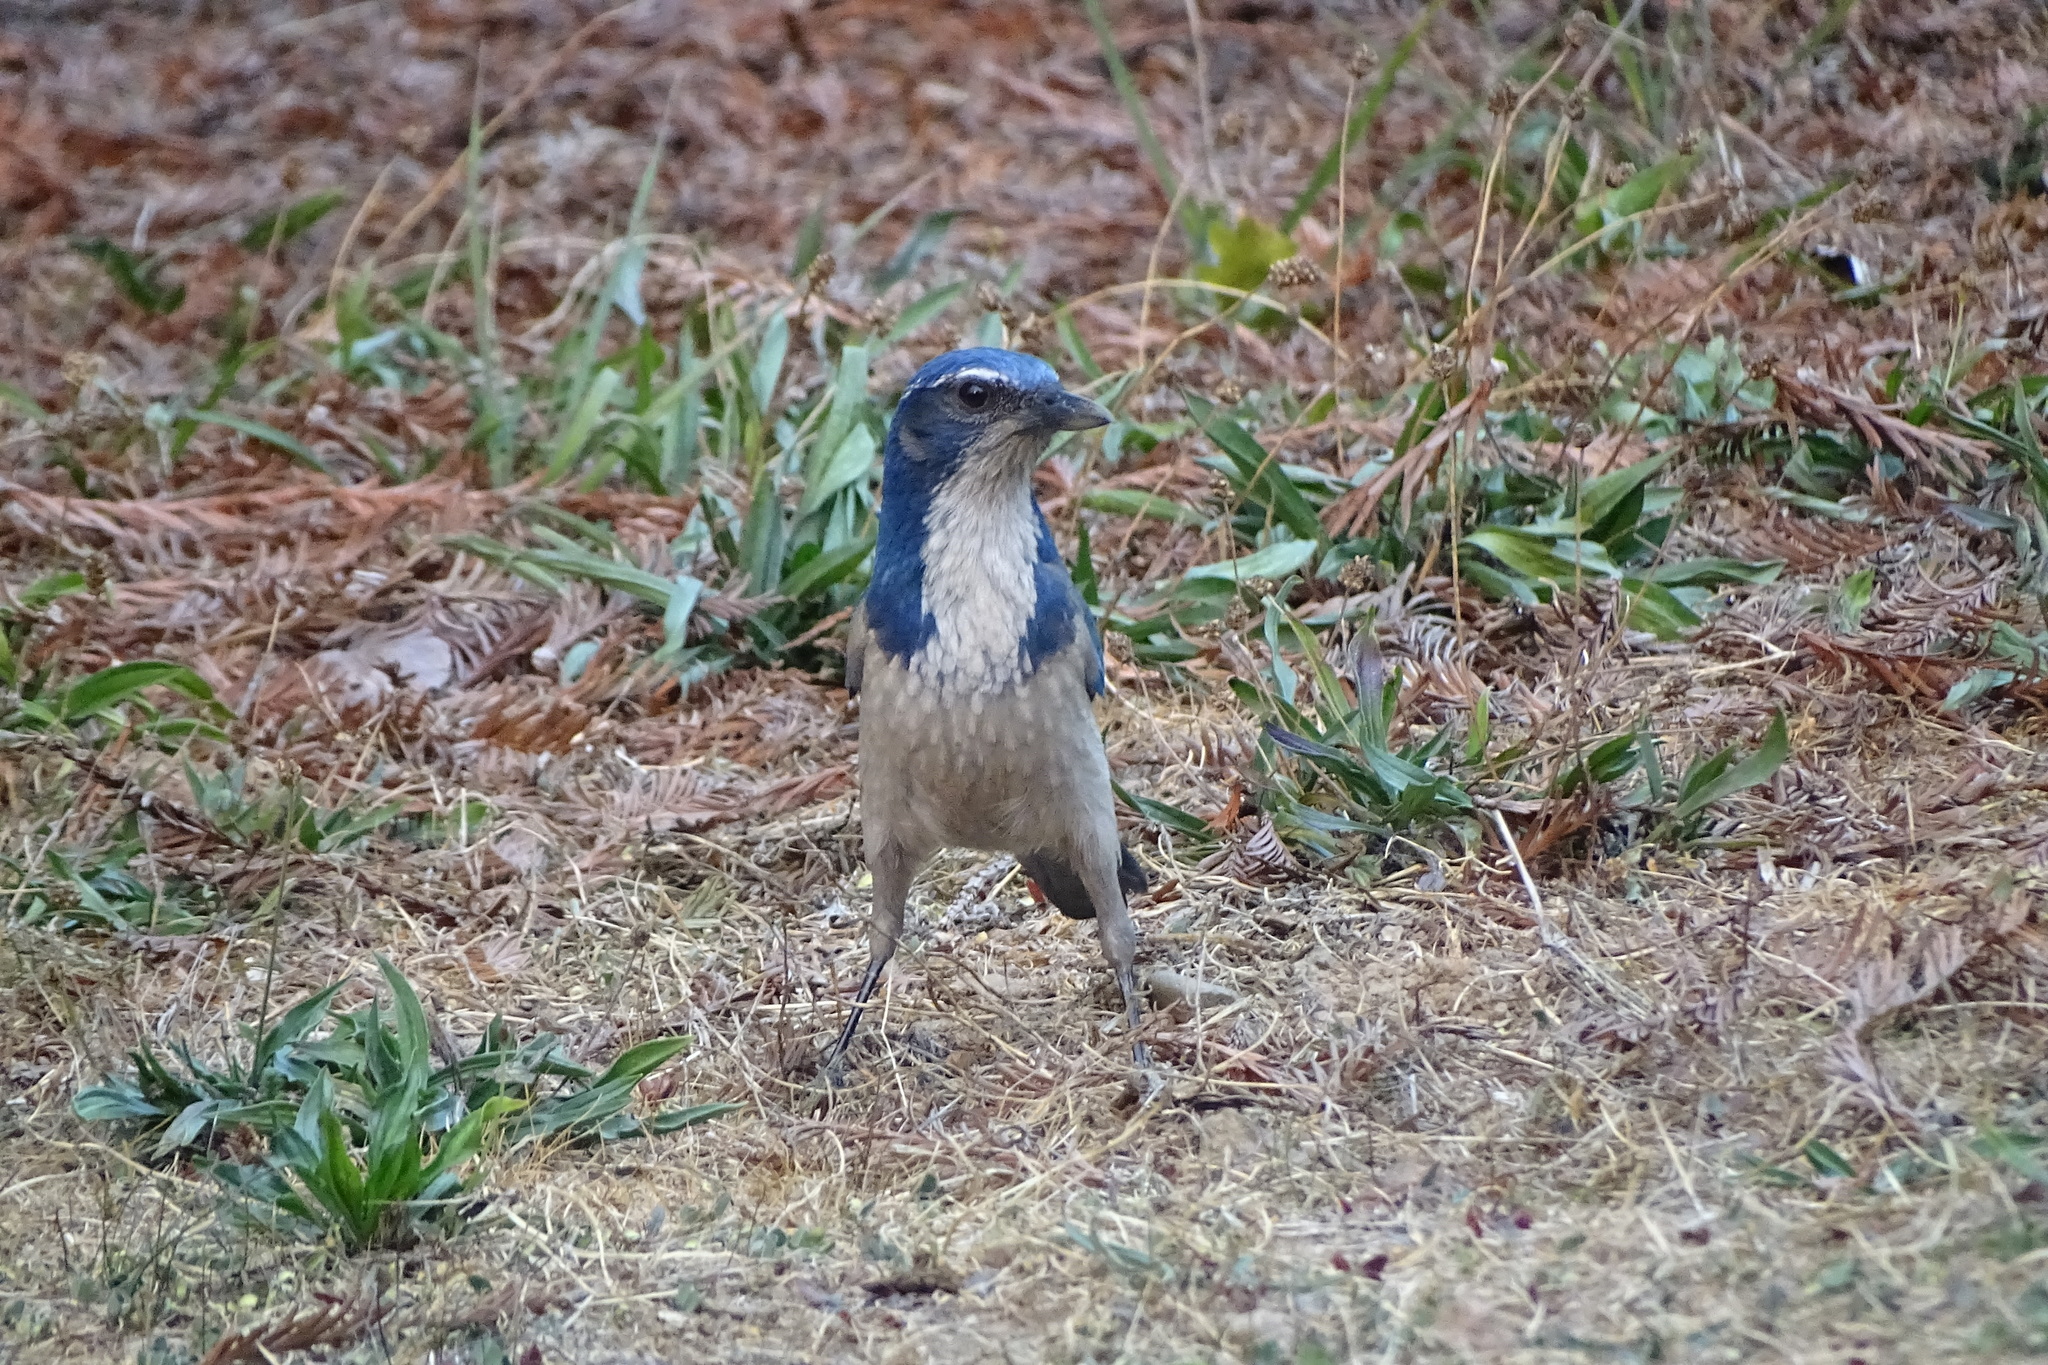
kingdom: Animalia
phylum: Chordata
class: Aves
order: Passeriformes
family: Corvidae
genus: Aphelocoma
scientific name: Aphelocoma californica
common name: California scrub-jay
